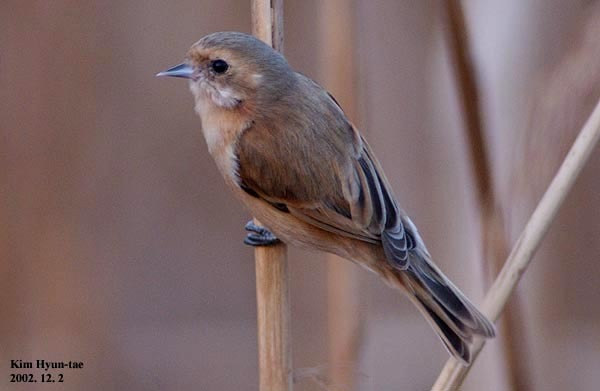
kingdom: Animalia
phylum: Chordata
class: Aves
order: Passeriformes
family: Remizidae
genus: Remiz
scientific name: Remiz consobrinus
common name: Chinese penduline tit
